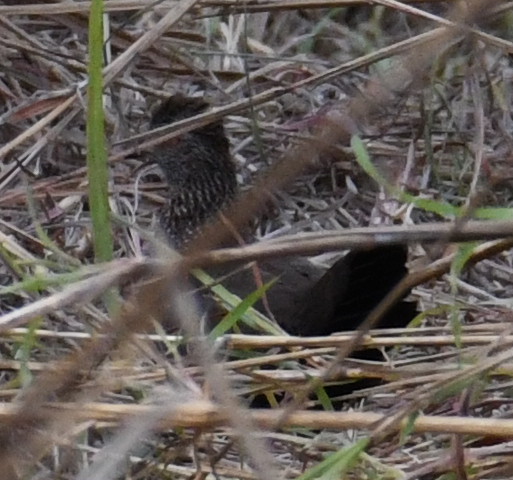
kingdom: Animalia
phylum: Chordata
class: Aves
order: Galliformes
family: Odontophoridae
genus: Ptilopachus
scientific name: Ptilopachus petrosus
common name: Stone partridge
